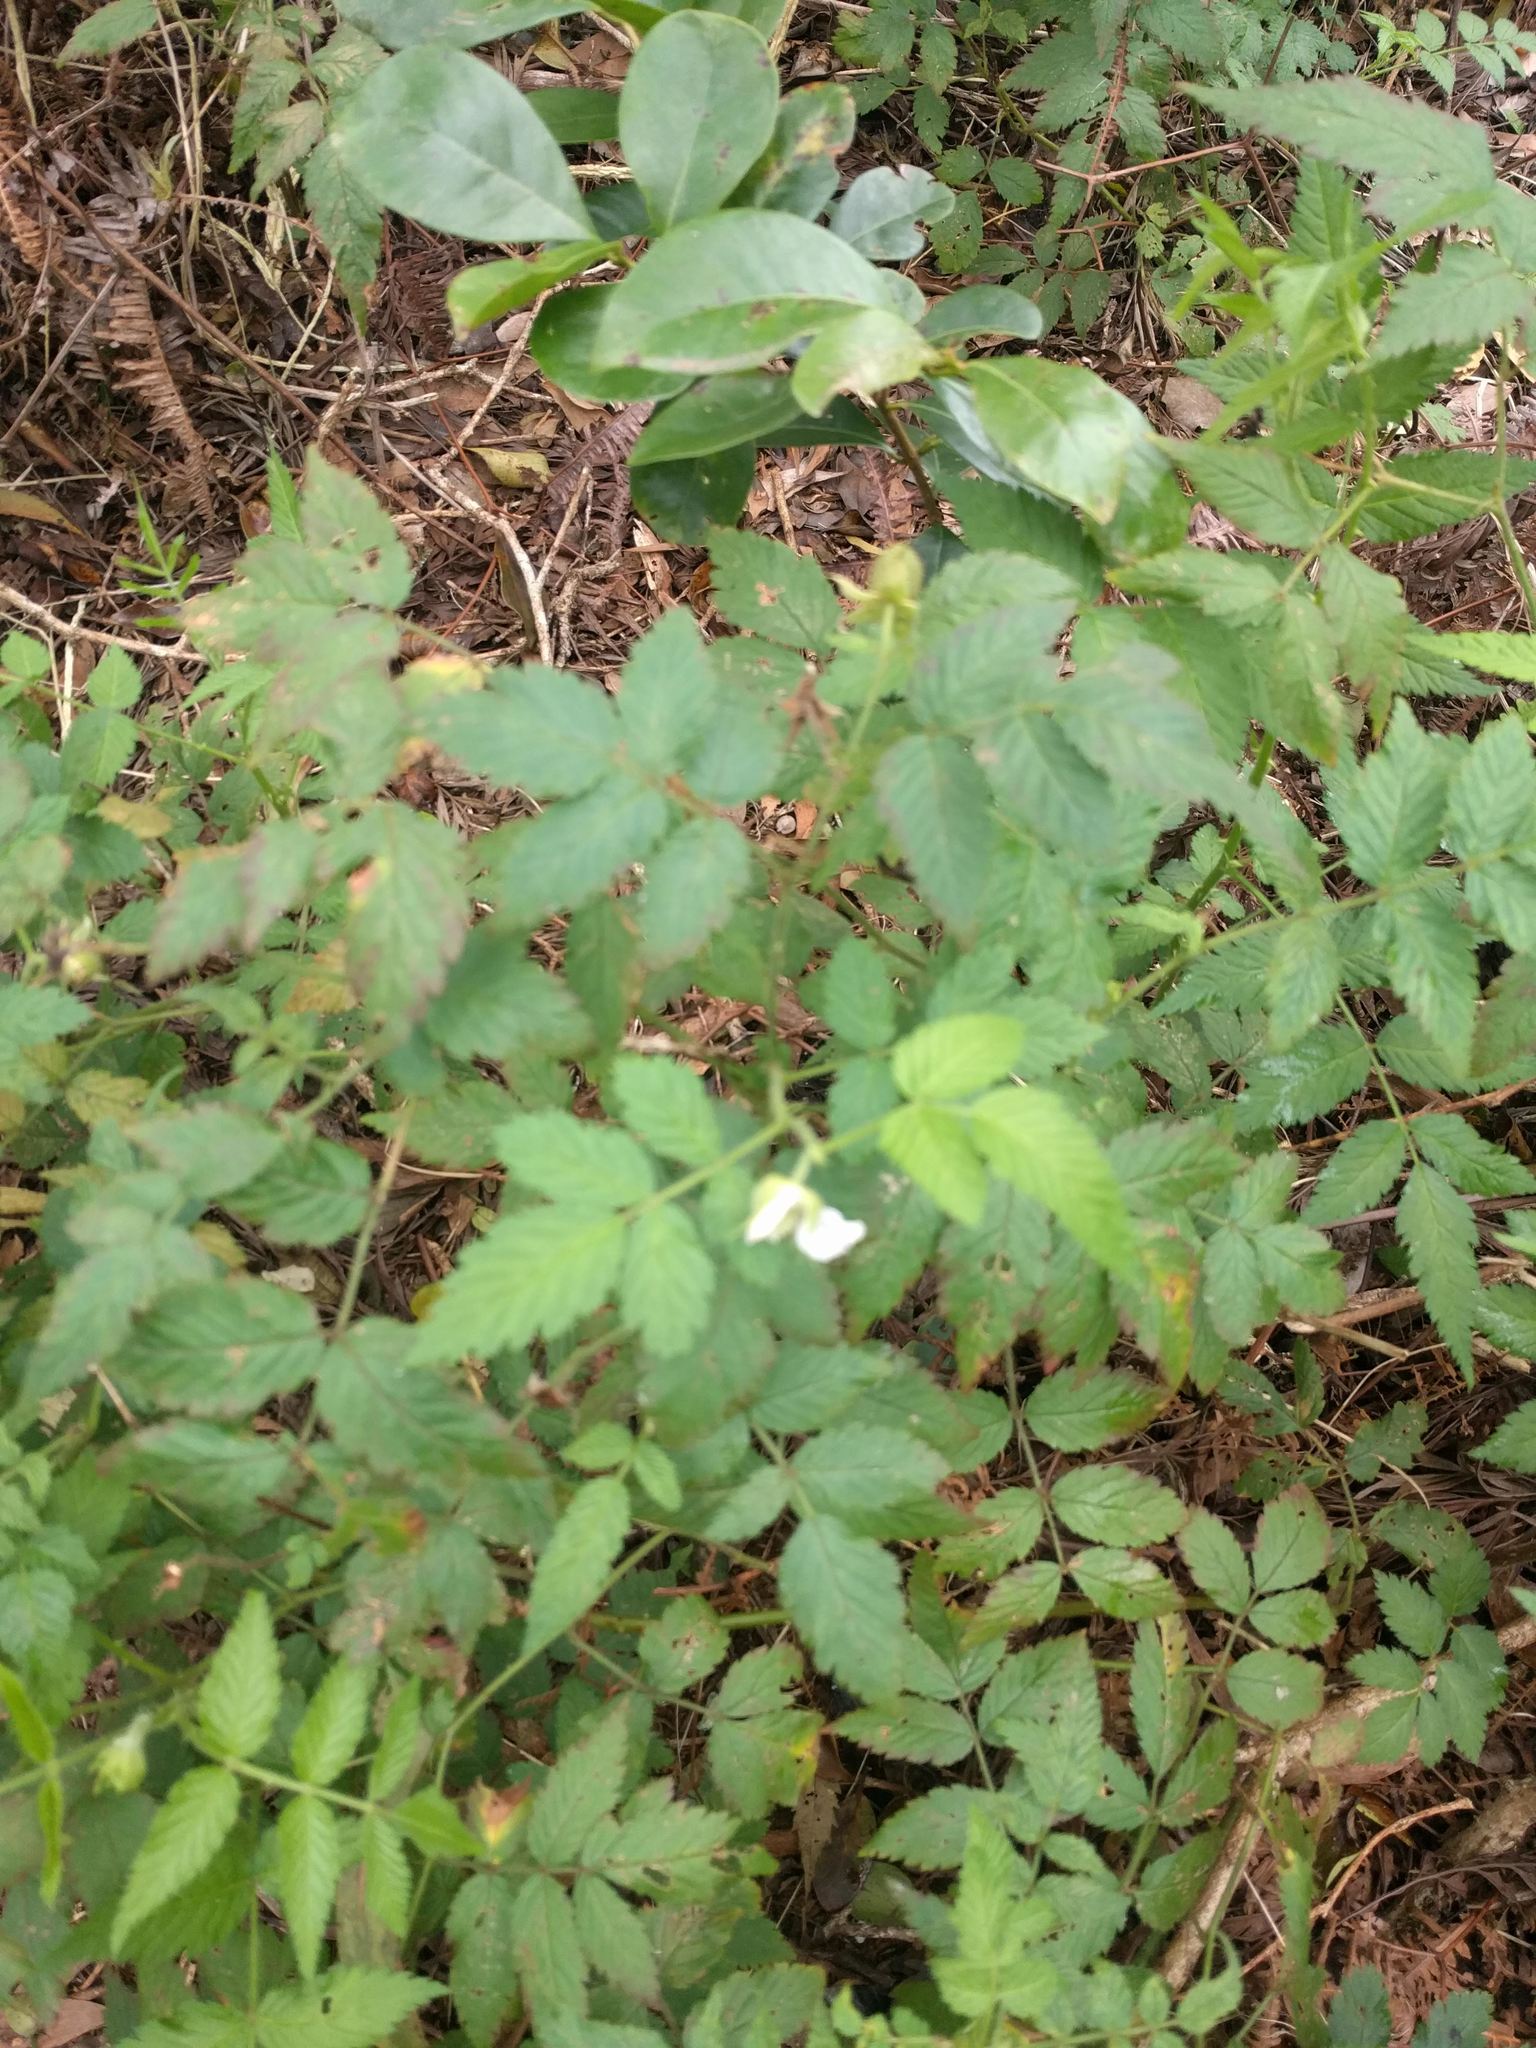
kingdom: Plantae
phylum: Tracheophyta
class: Magnoliopsida
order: Rosales
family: Rosaceae
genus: Rubus
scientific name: Rubus rosifolius
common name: Roseleaf raspberry
